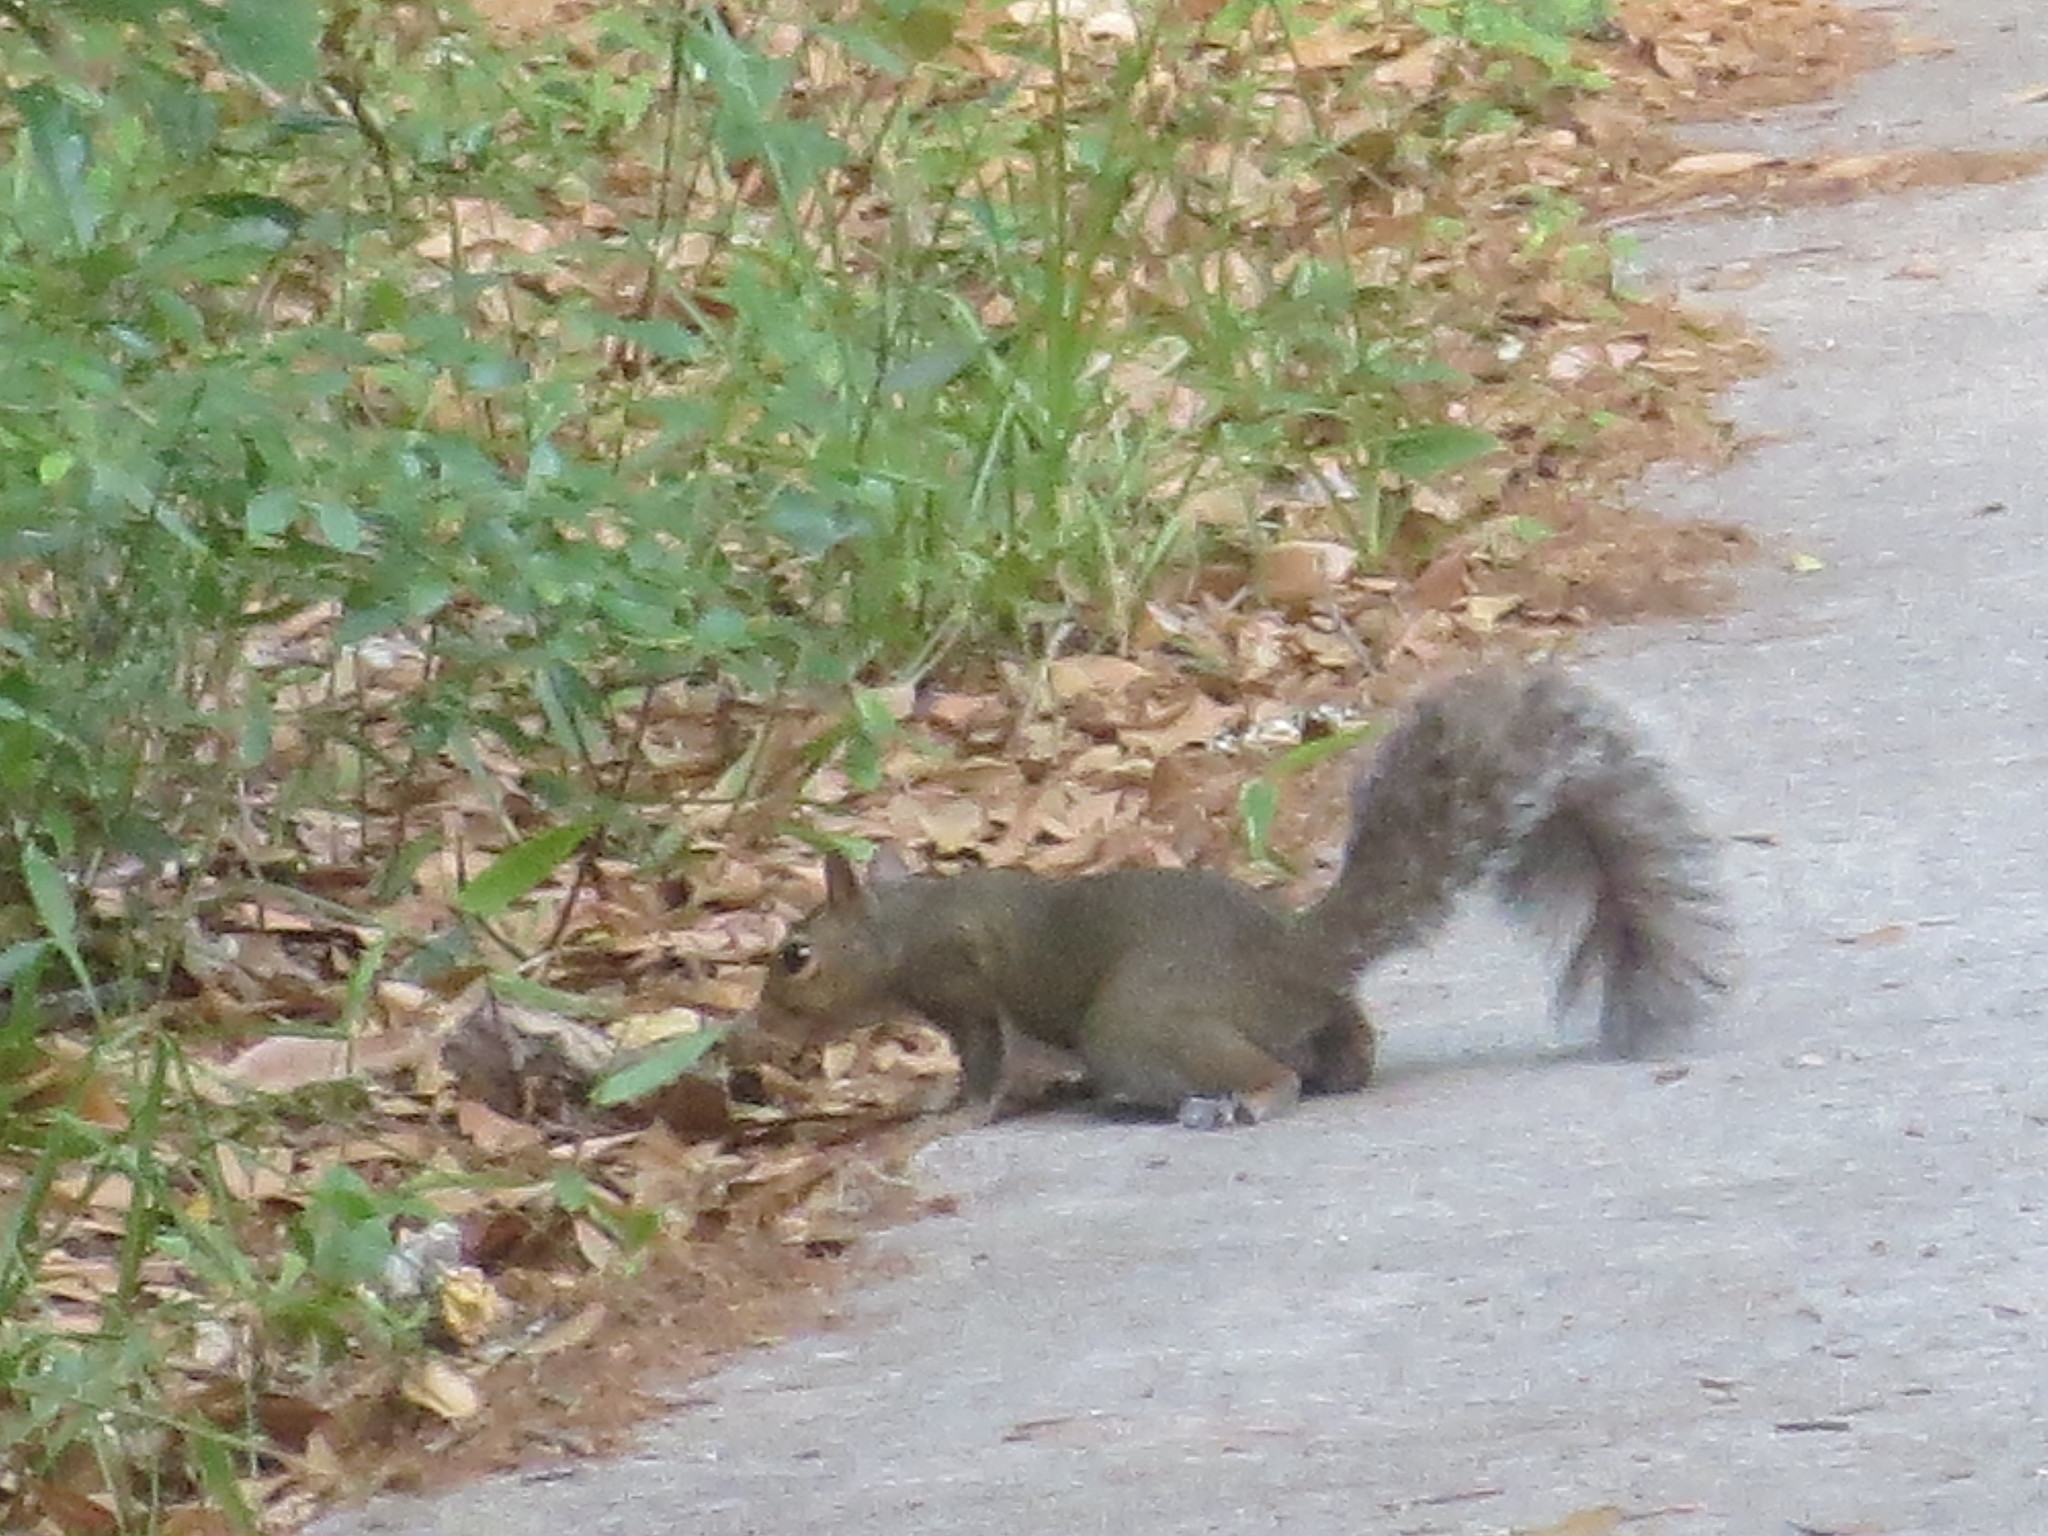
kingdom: Animalia
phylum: Chordata
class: Mammalia
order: Rodentia
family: Sciuridae
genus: Sciurus
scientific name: Sciurus carolinensis
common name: Eastern gray squirrel
